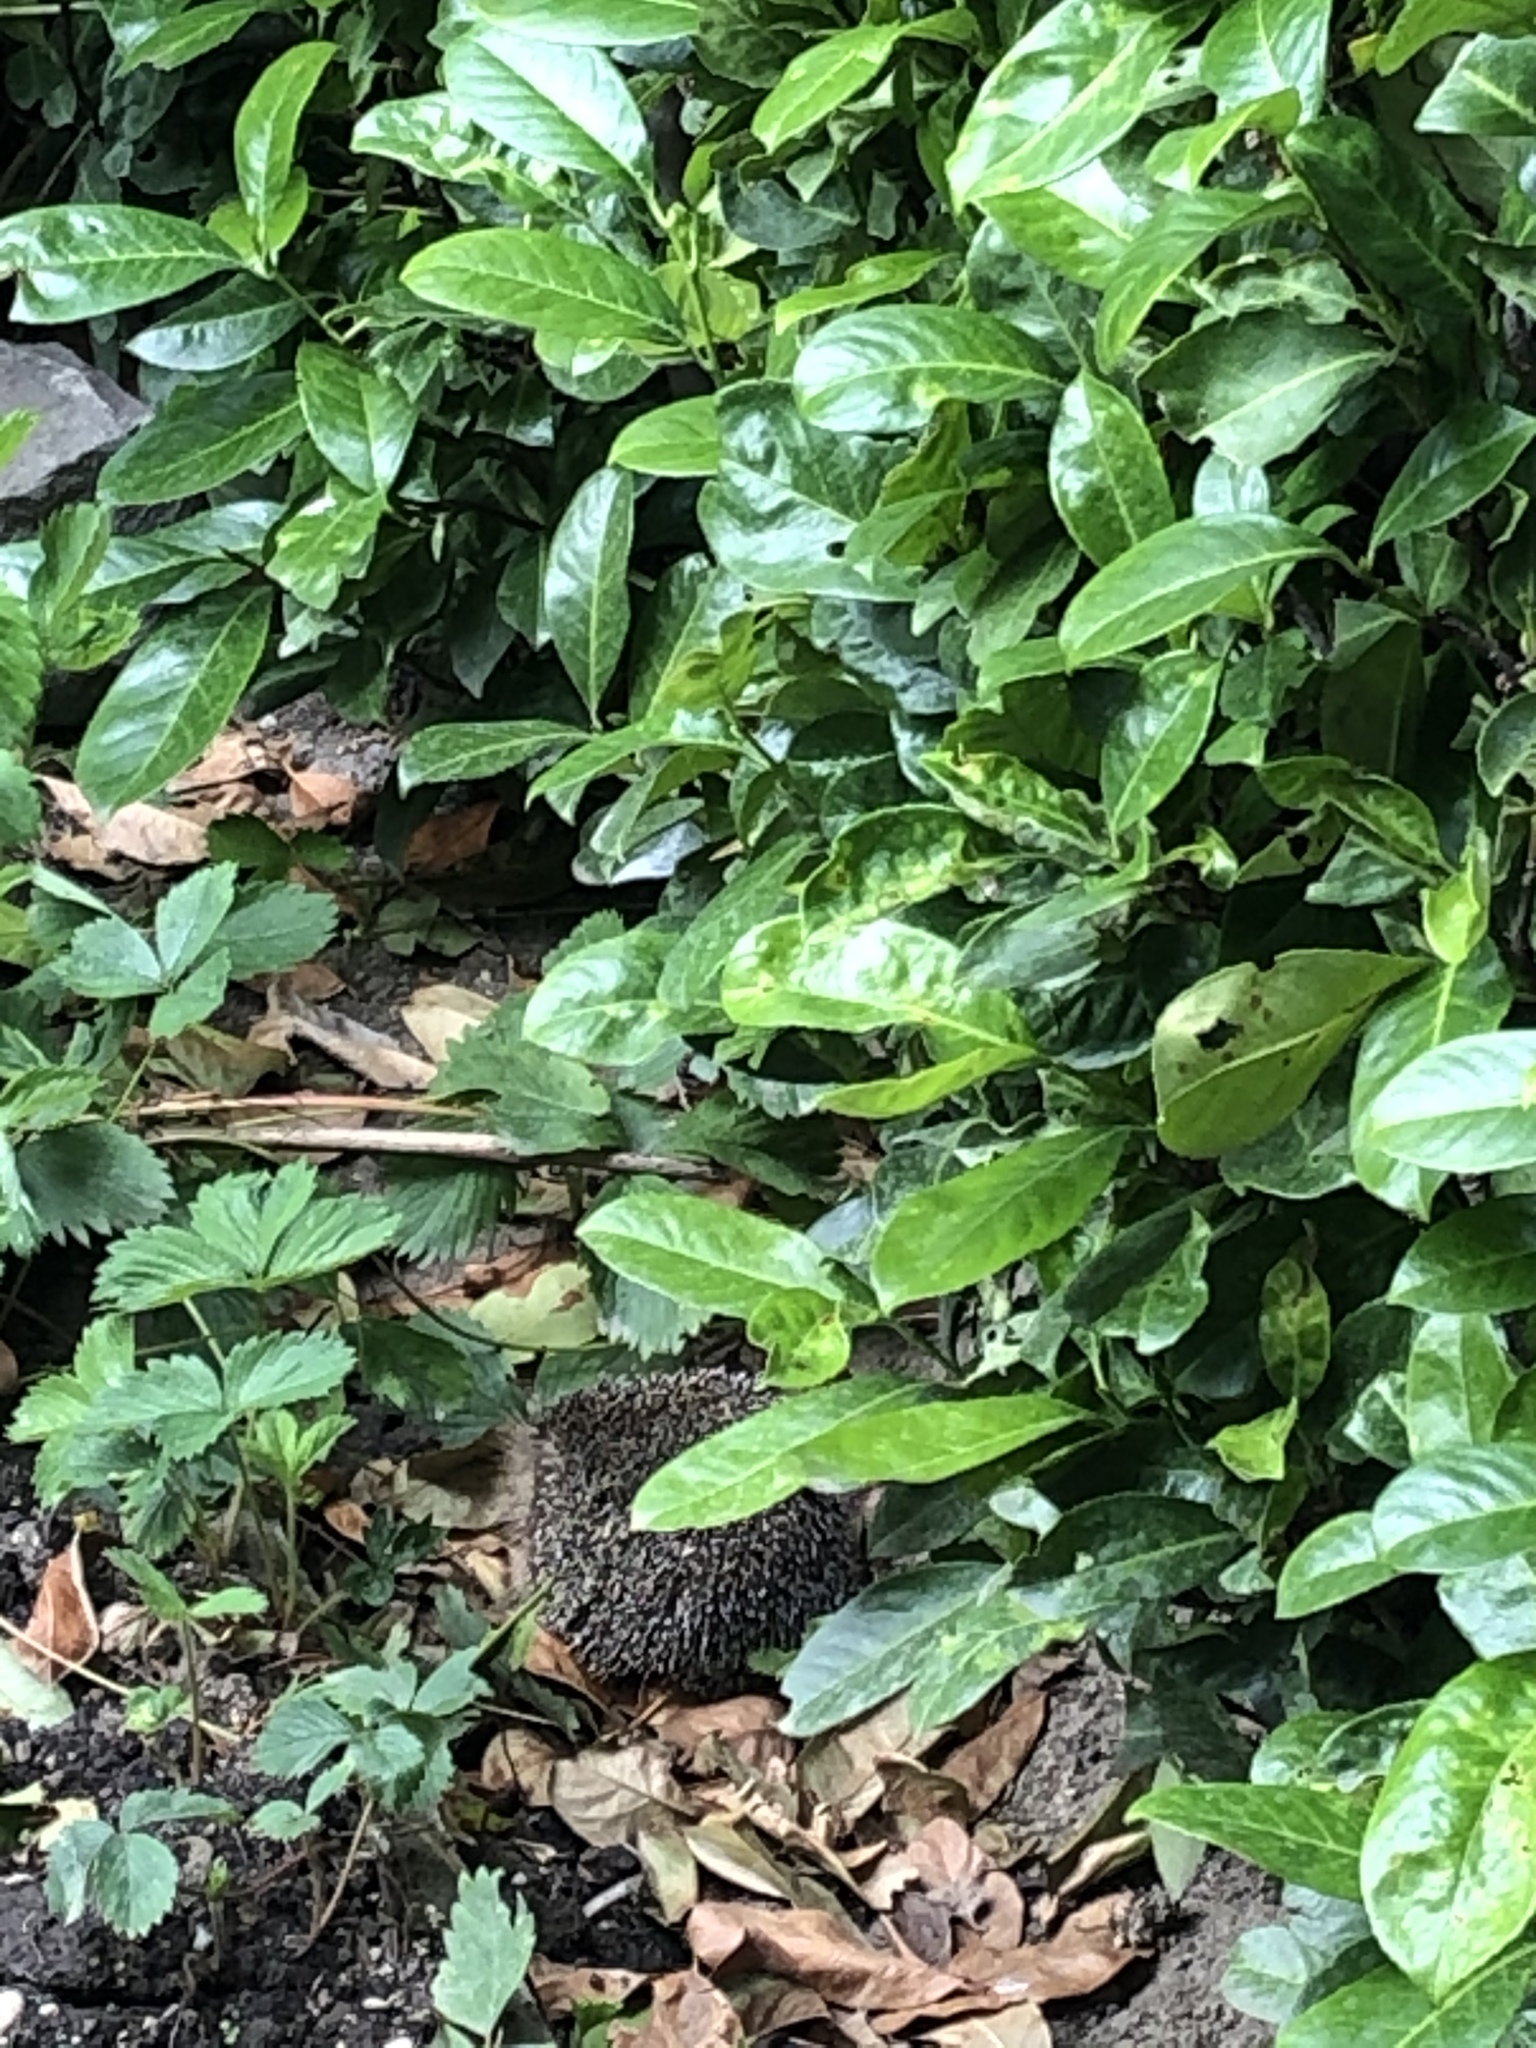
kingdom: Animalia
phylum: Chordata
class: Mammalia
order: Erinaceomorpha
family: Erinaceidae
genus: Erinaceus
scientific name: Erinaceus europaeus
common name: West european hedgehog
